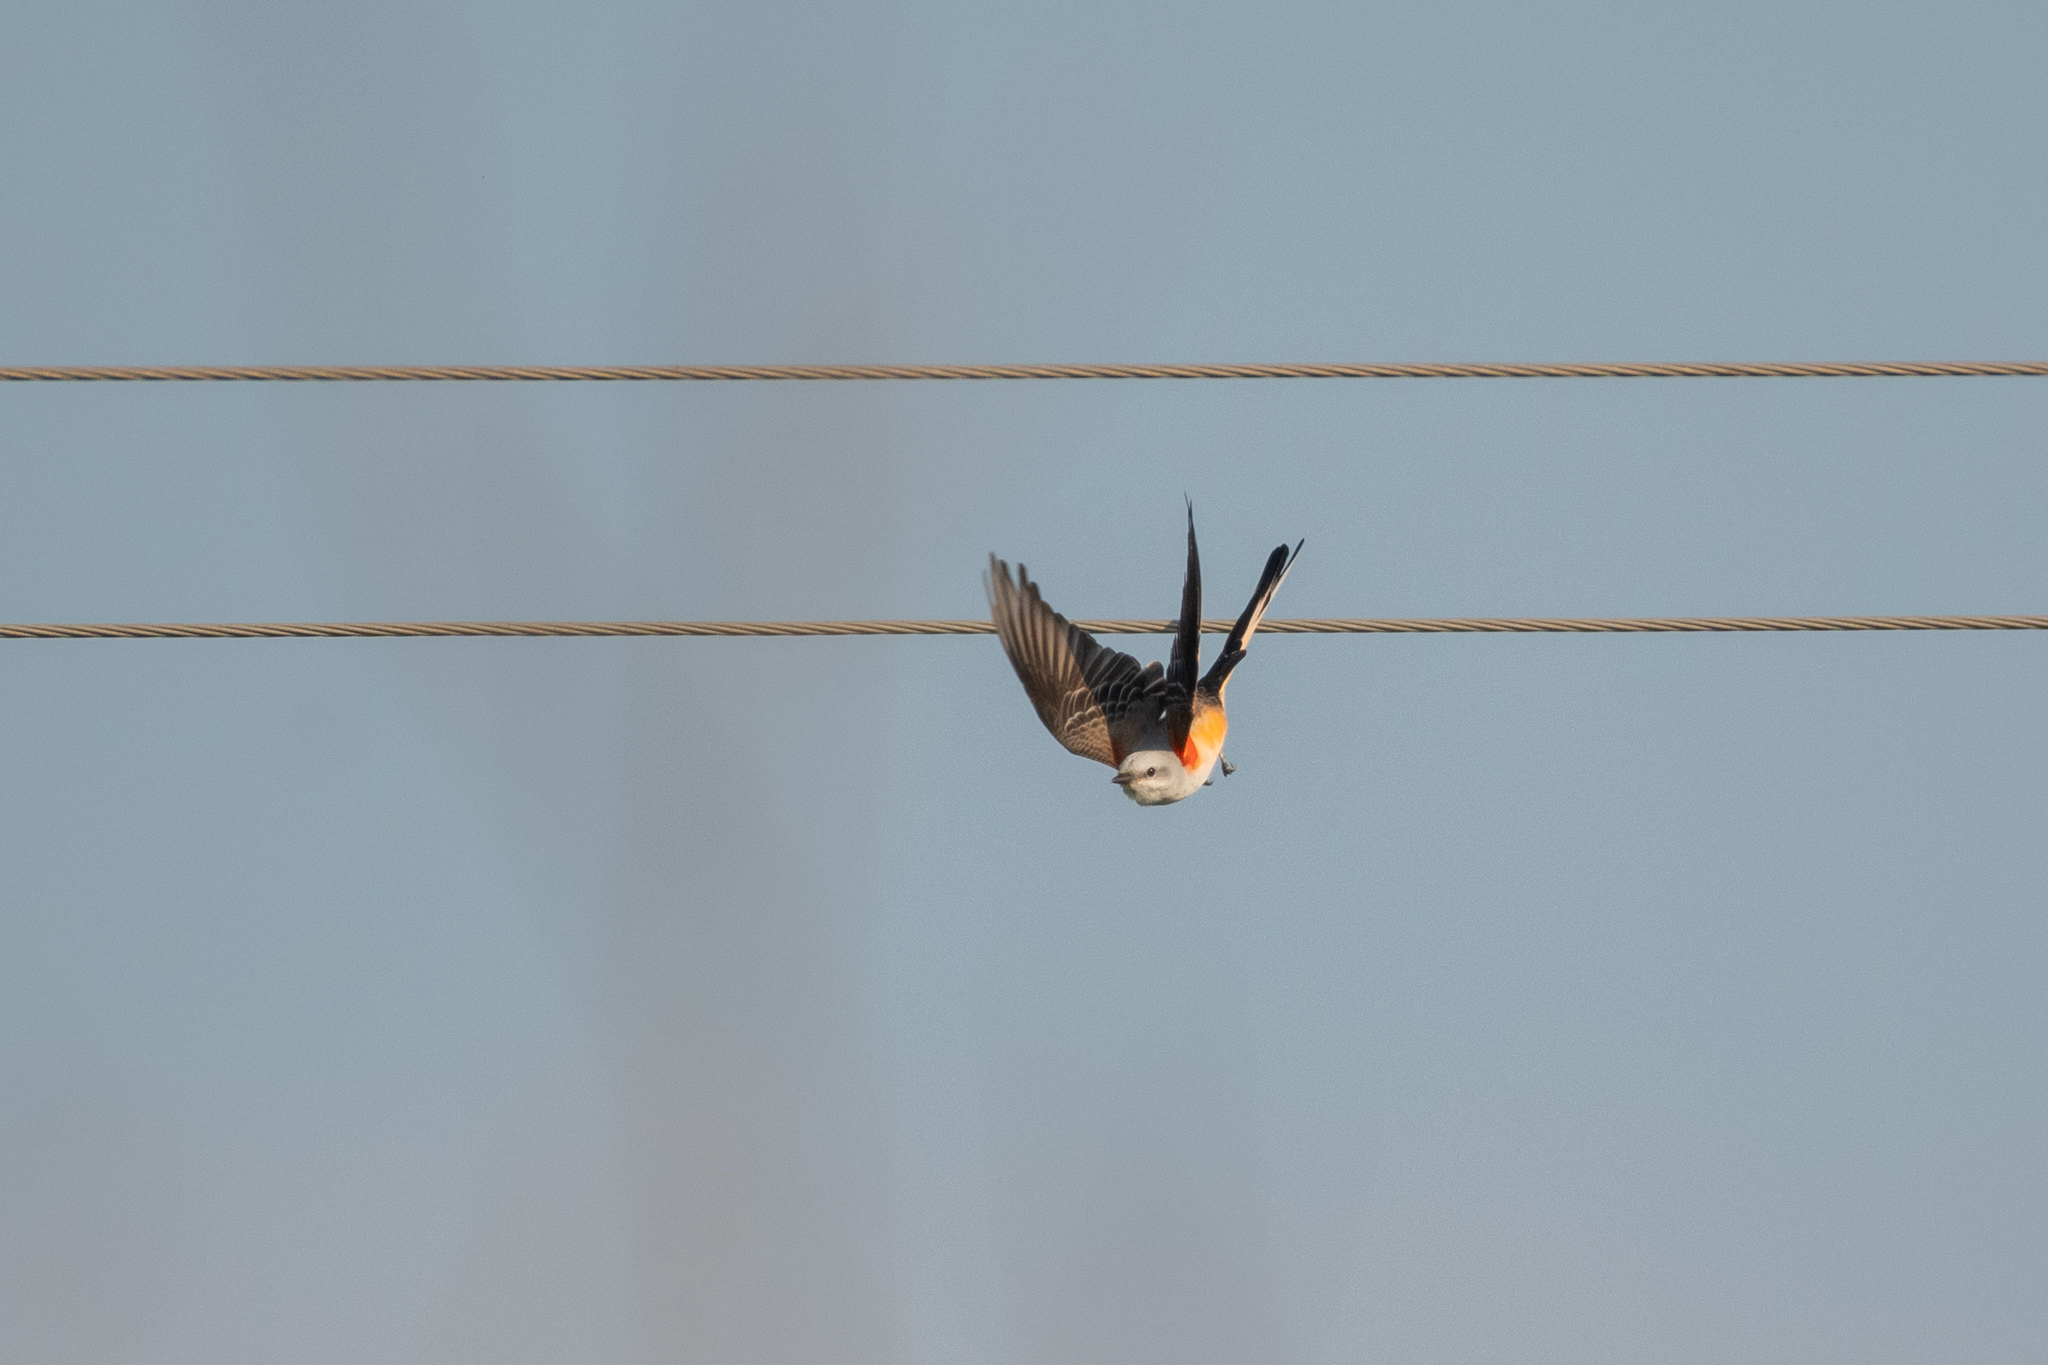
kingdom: Animalia
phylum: Chordata
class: Aves
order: Passeriformes
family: Tyrannidae
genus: Tyrannus
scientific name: Tyrannus forficatus
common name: Scissor-tailed flycatcher
